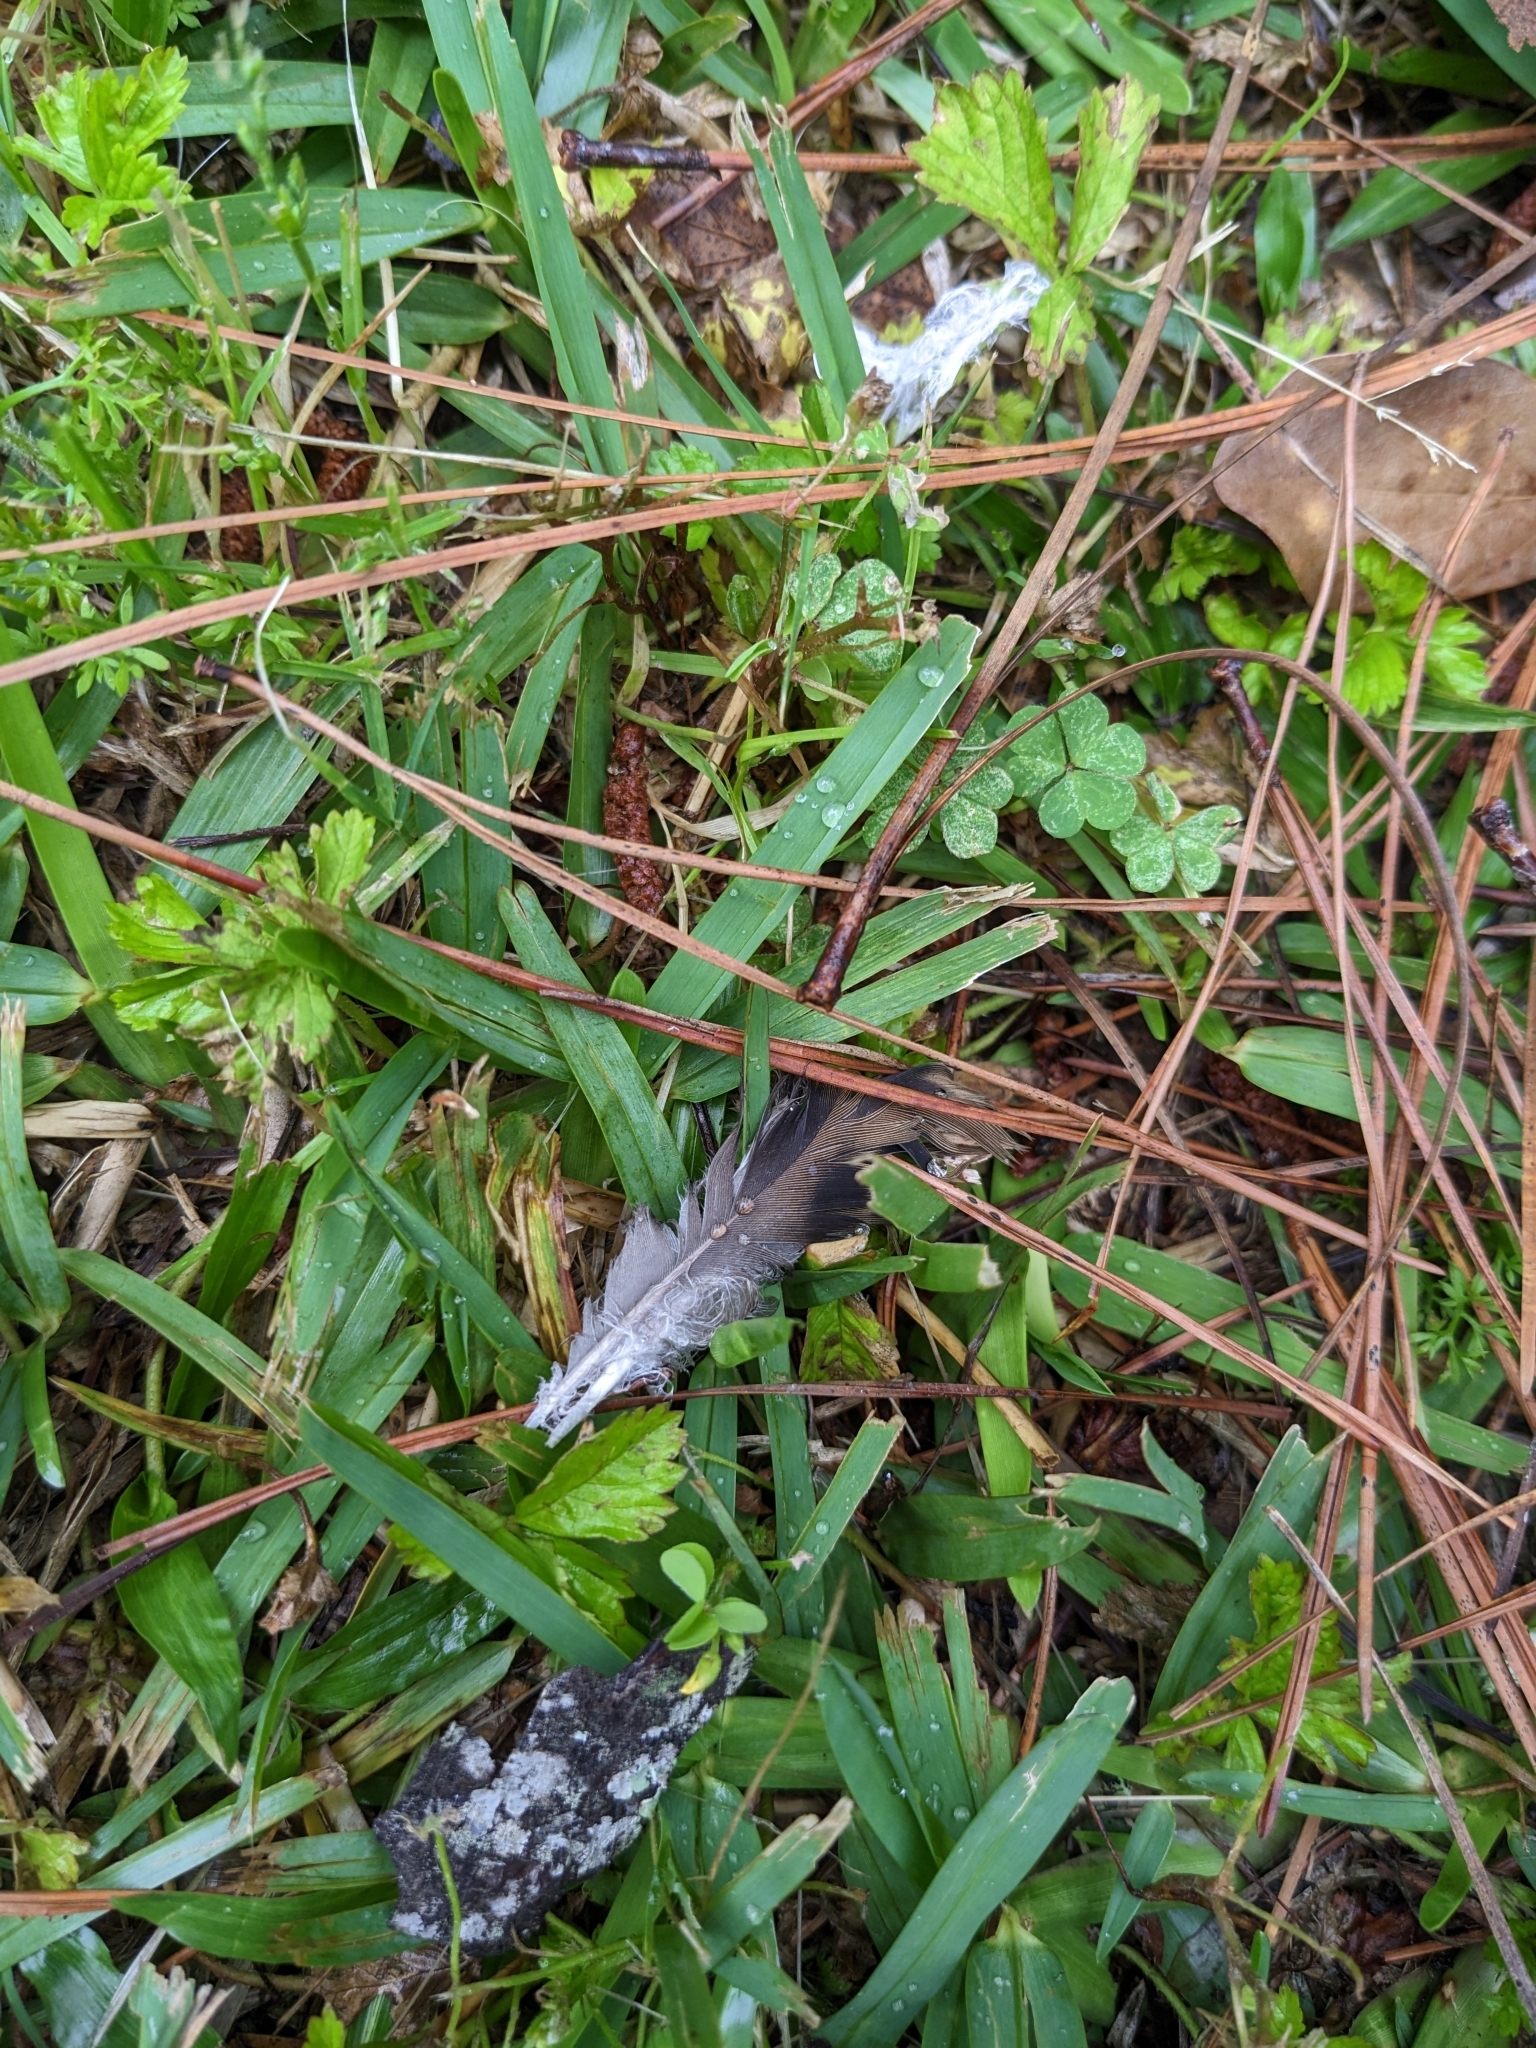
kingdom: Animalia
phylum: Chordata
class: Aves
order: Columbiformes
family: Columbidae
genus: Zenaida
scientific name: Zenaida macroura
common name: Mourning dove
